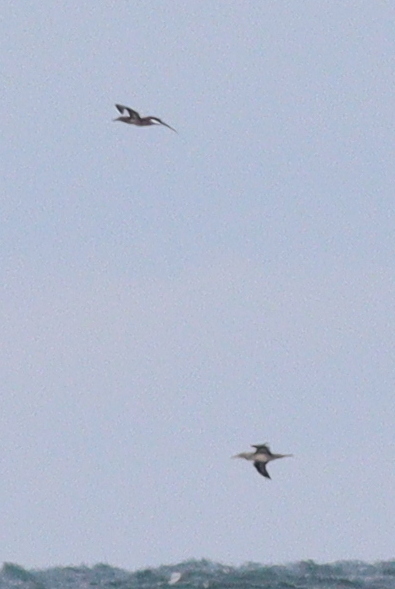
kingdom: Animalia
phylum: Chordata
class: Aves
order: Suliformes
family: Sulidae
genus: Morus
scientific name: Morus bassanus
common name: Northern gannet
